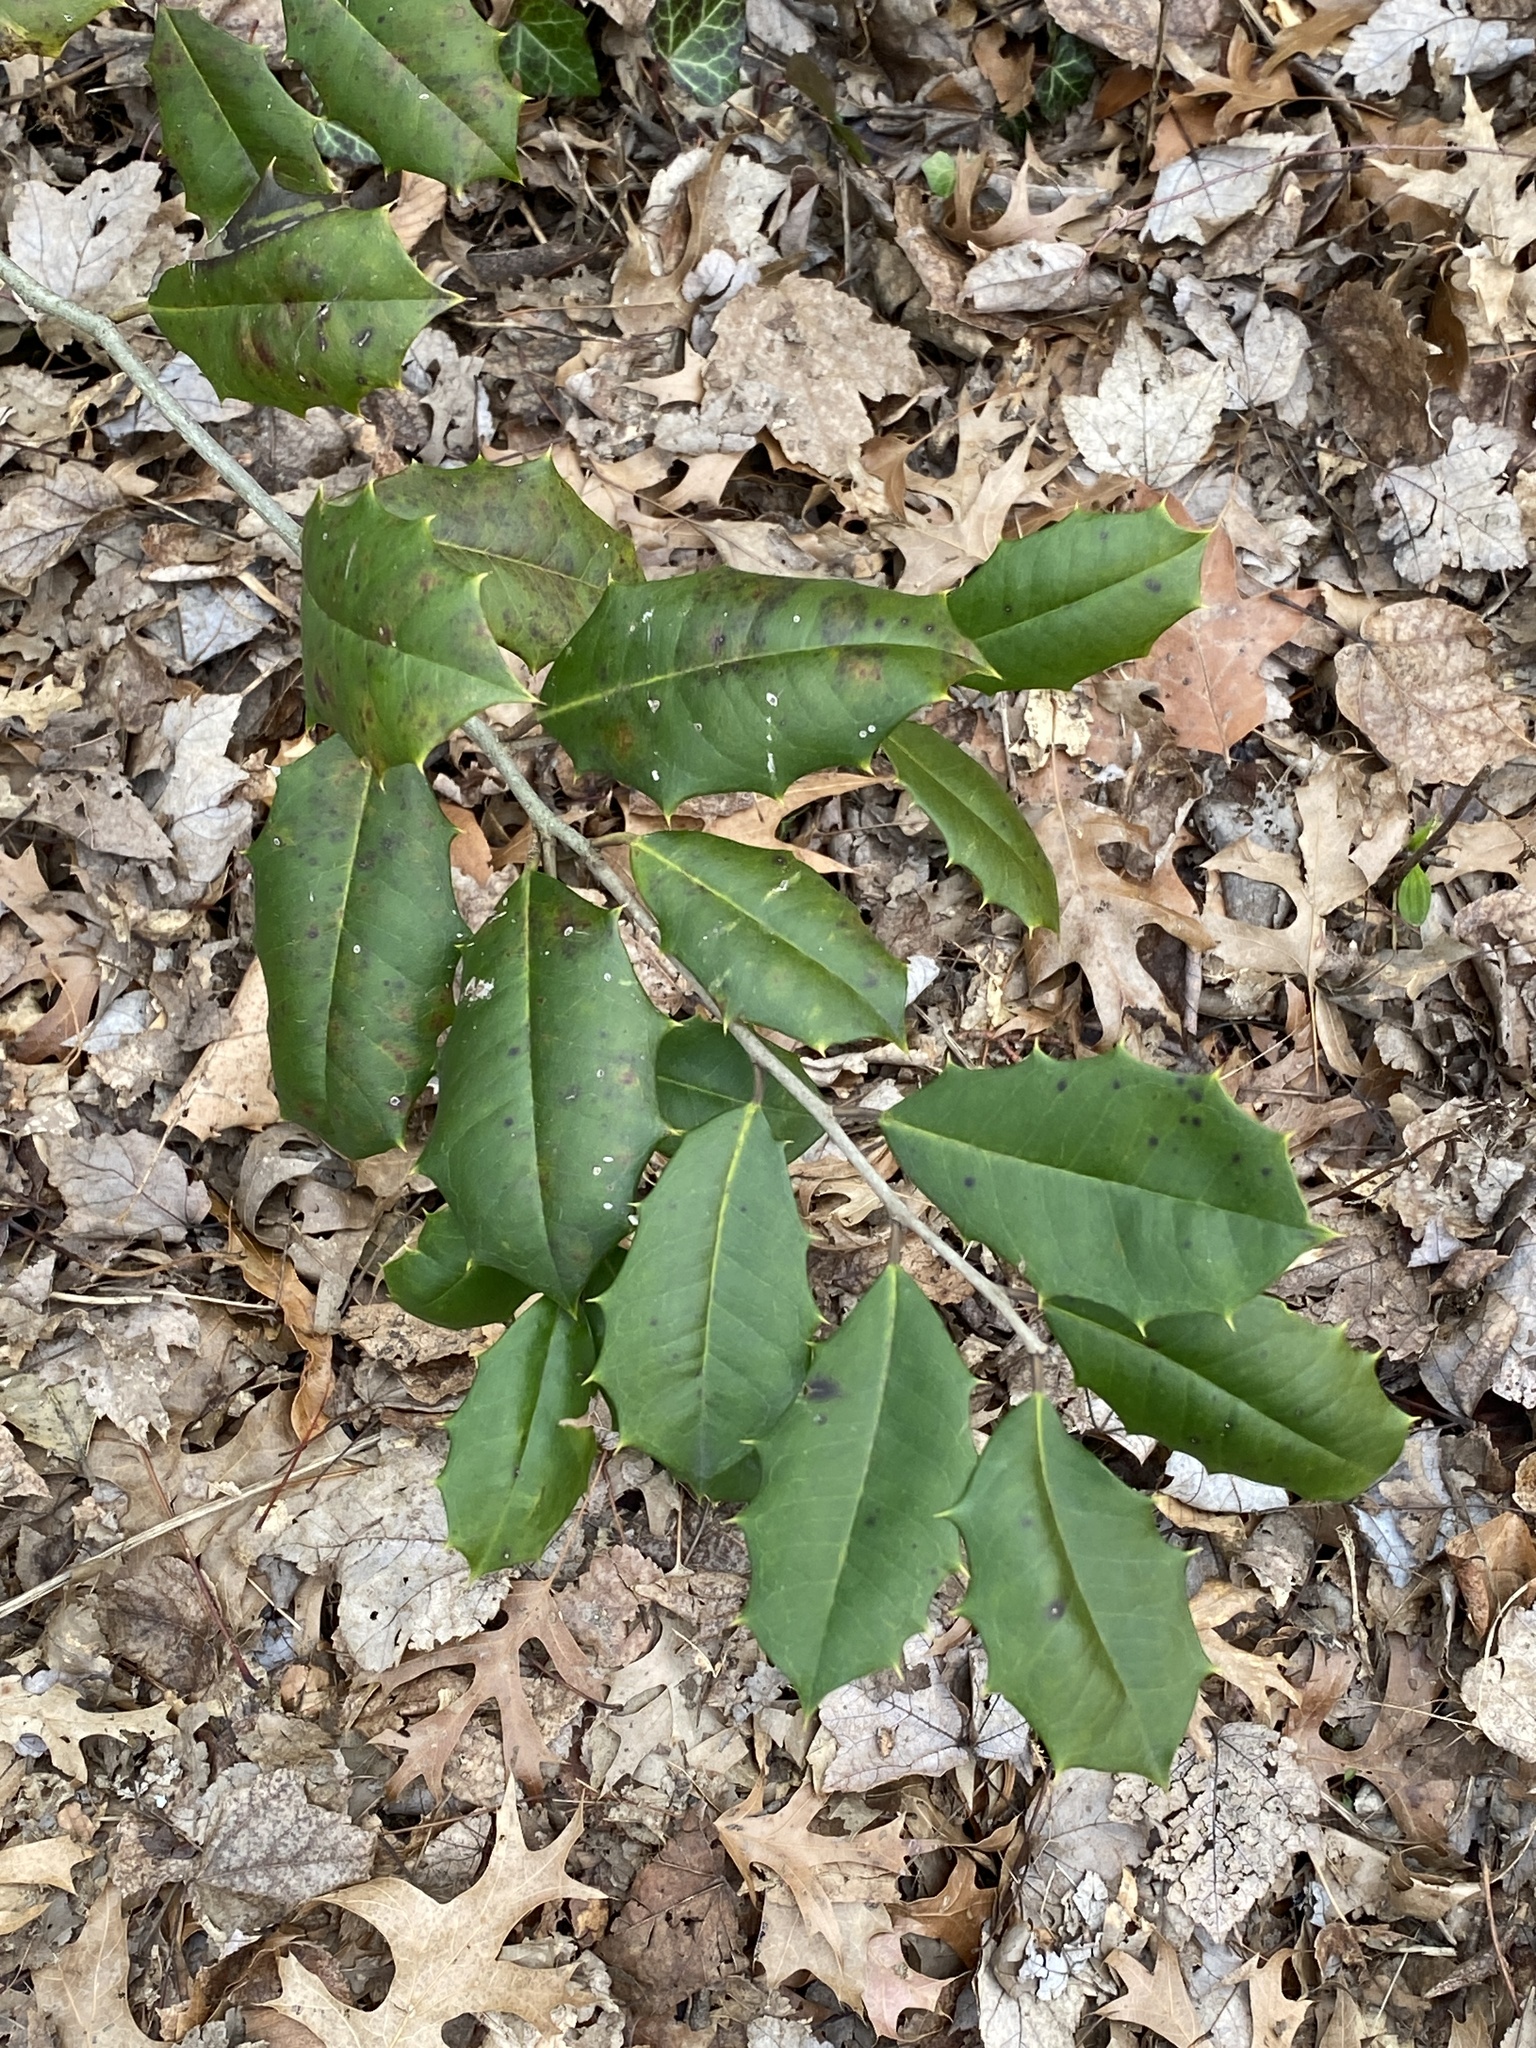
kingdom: Plantae
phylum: Tracheophyta
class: Magnoliopsida
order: Aquifoliales
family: Aquifoliaceae
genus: Ilex
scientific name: Ilex opaca
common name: American holly
